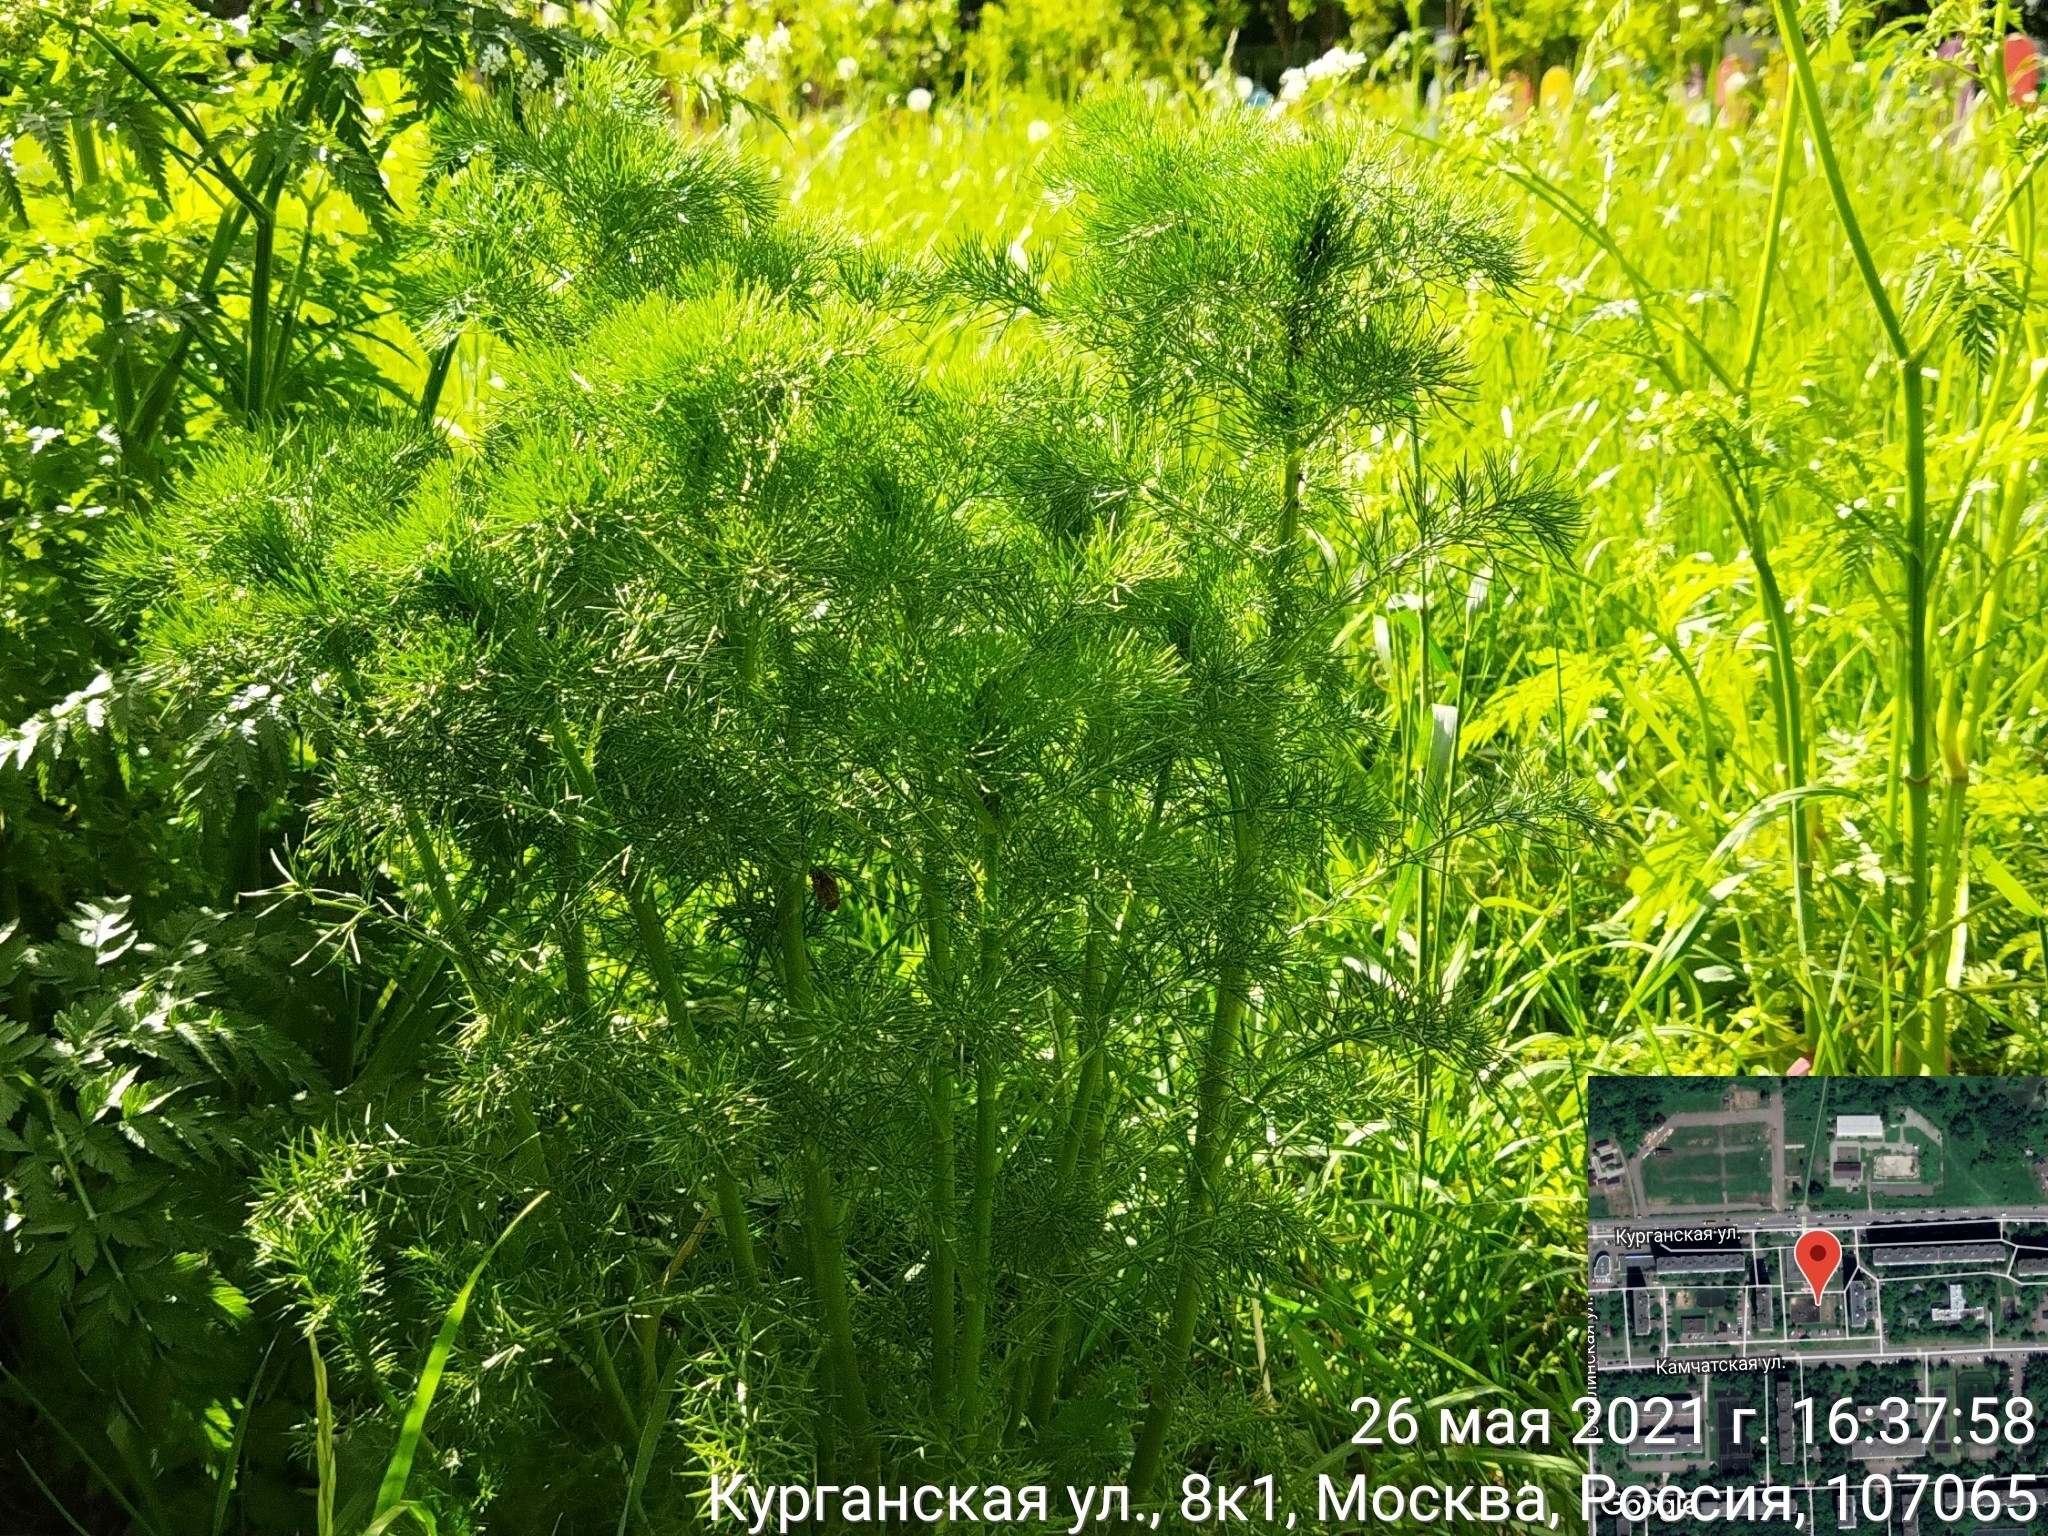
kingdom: Plantae
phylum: Tracheophyta
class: Magnoliopsida
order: Asterales
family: Asteraceae
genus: Tripleurospermum
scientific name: Tripleurospermum inodorum
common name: Scentless mayweed
